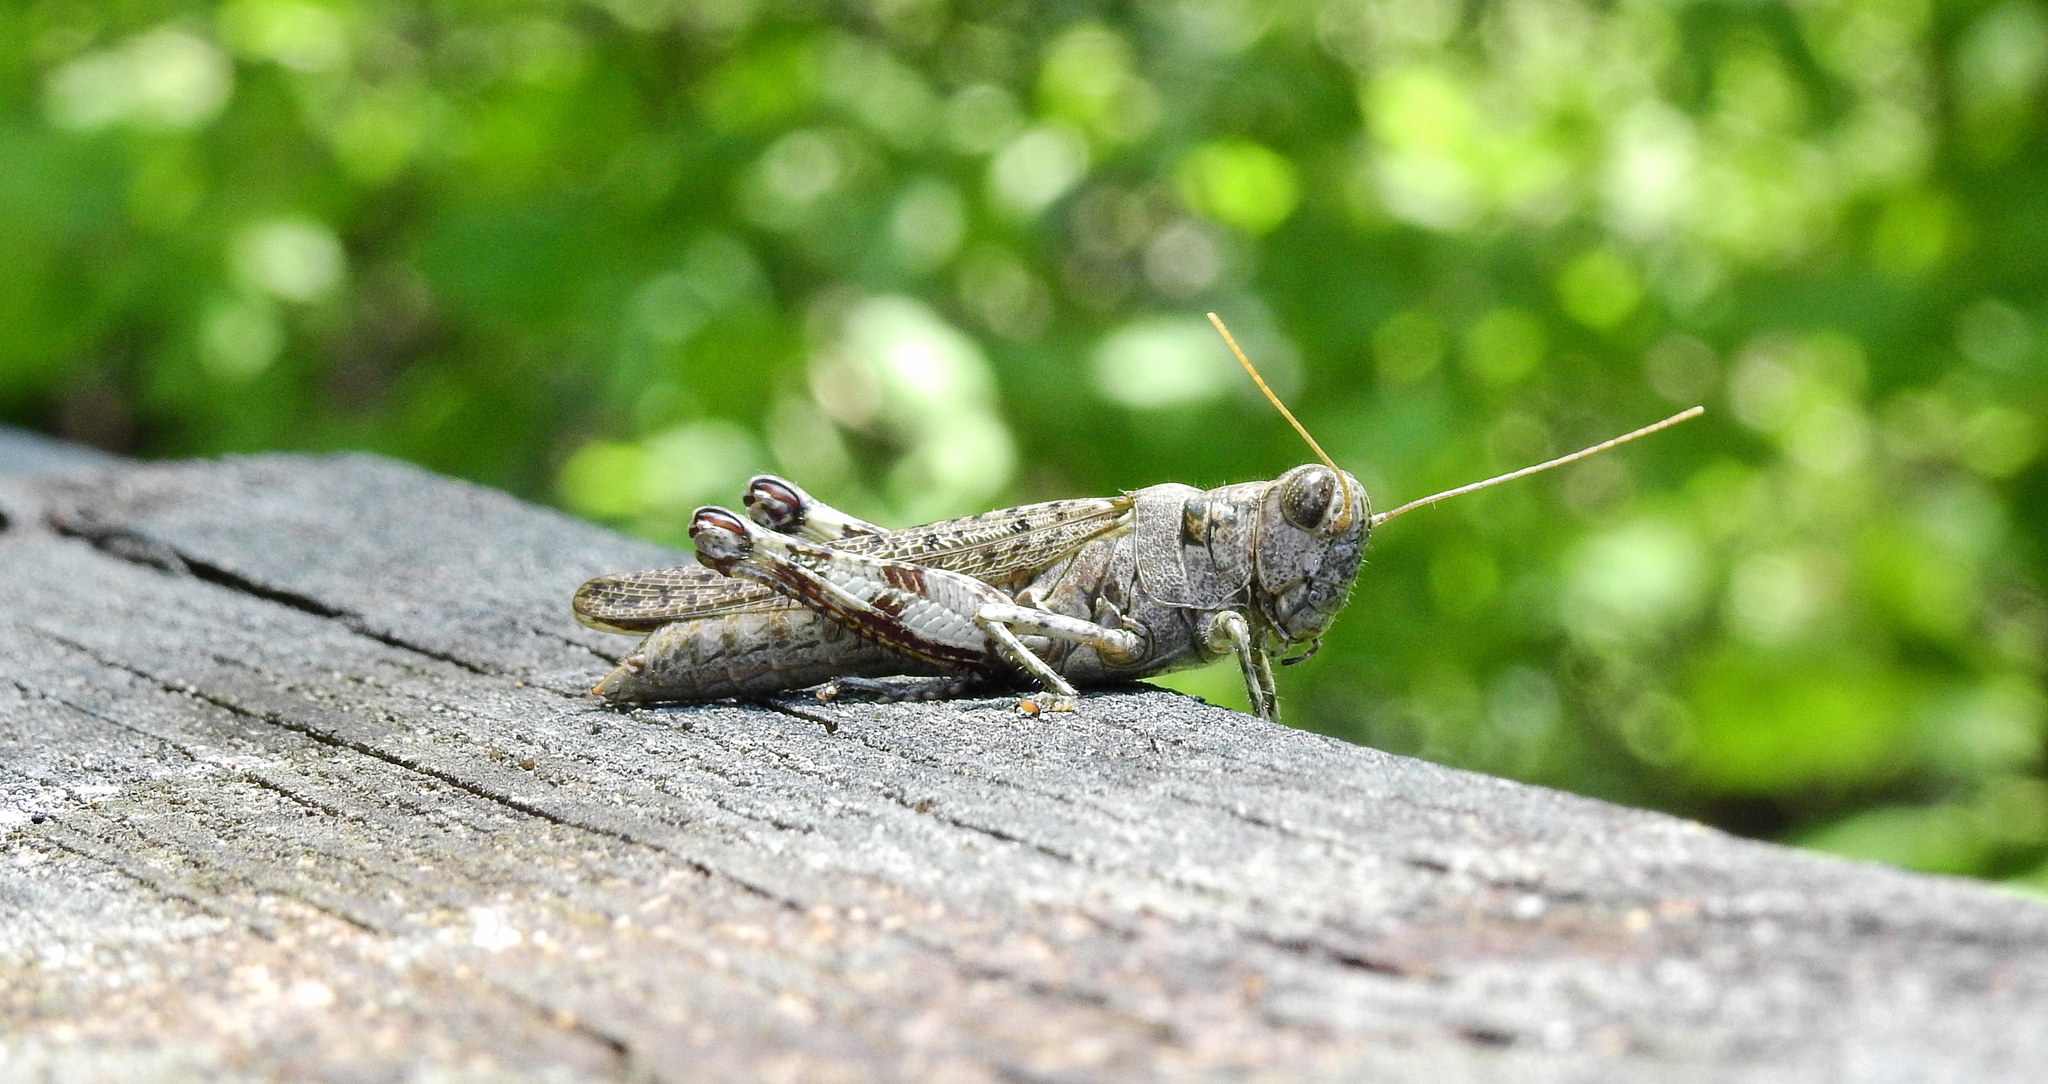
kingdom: Animalia
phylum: Arthropoda
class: Insecta
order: Orthoptera
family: Acrididae
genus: Melanoplus
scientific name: Melanoplus punctulatus
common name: Pine-tree spur-throat grasshopper
